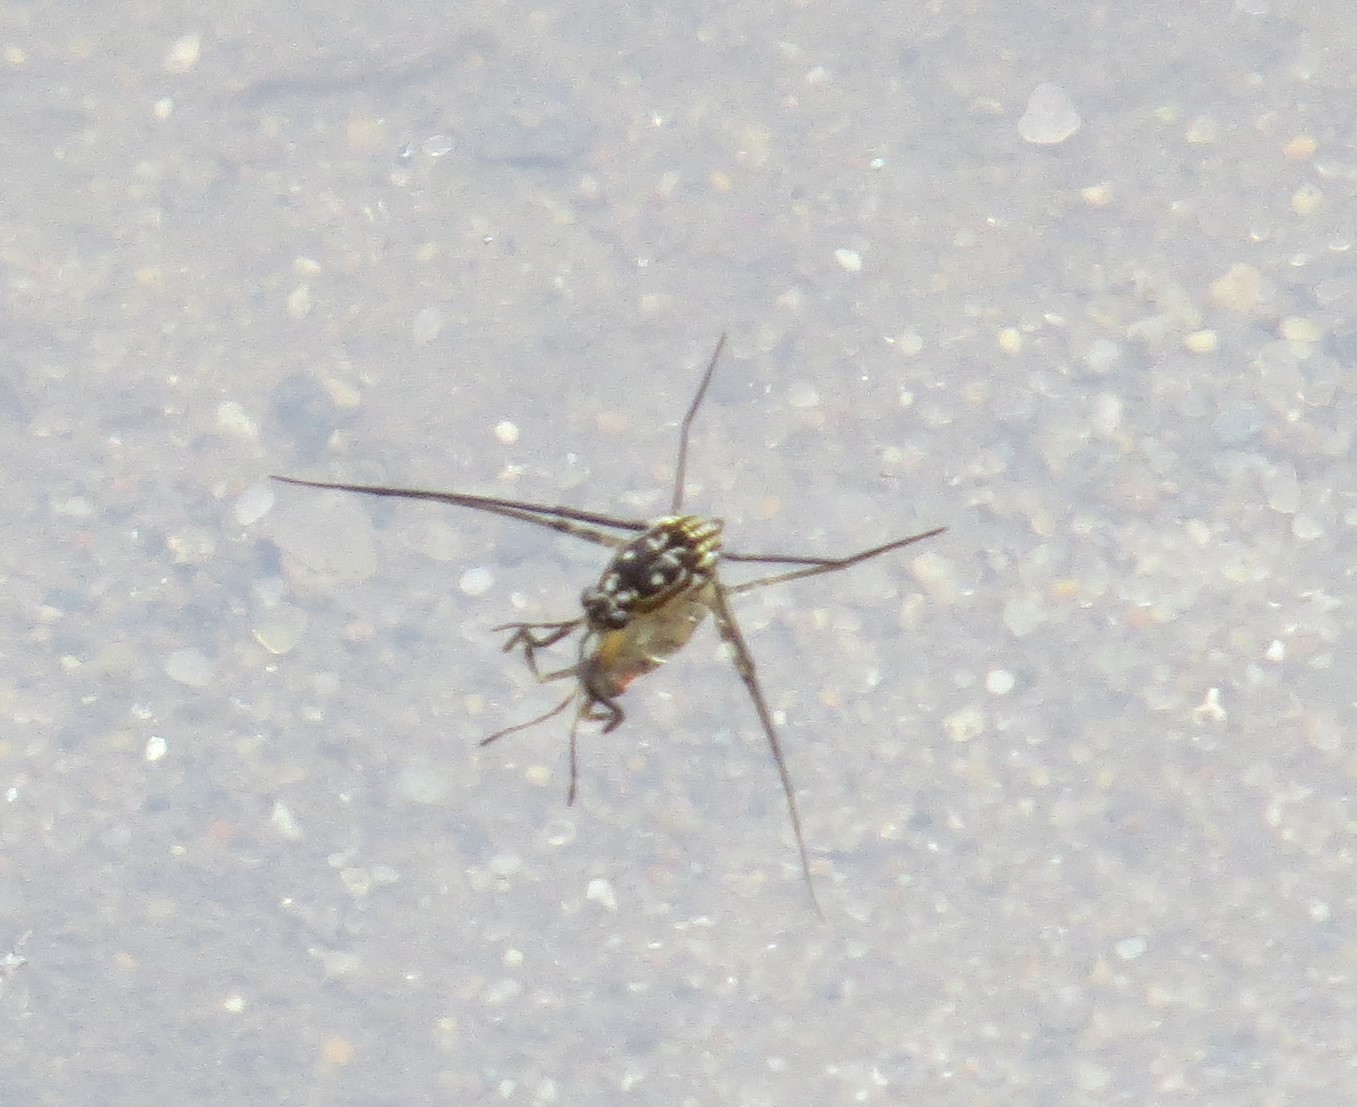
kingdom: Animalia
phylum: Arthropoda
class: Insecta
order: Hemiptera
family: Gerridae
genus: Trepobates
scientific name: Trepobates
